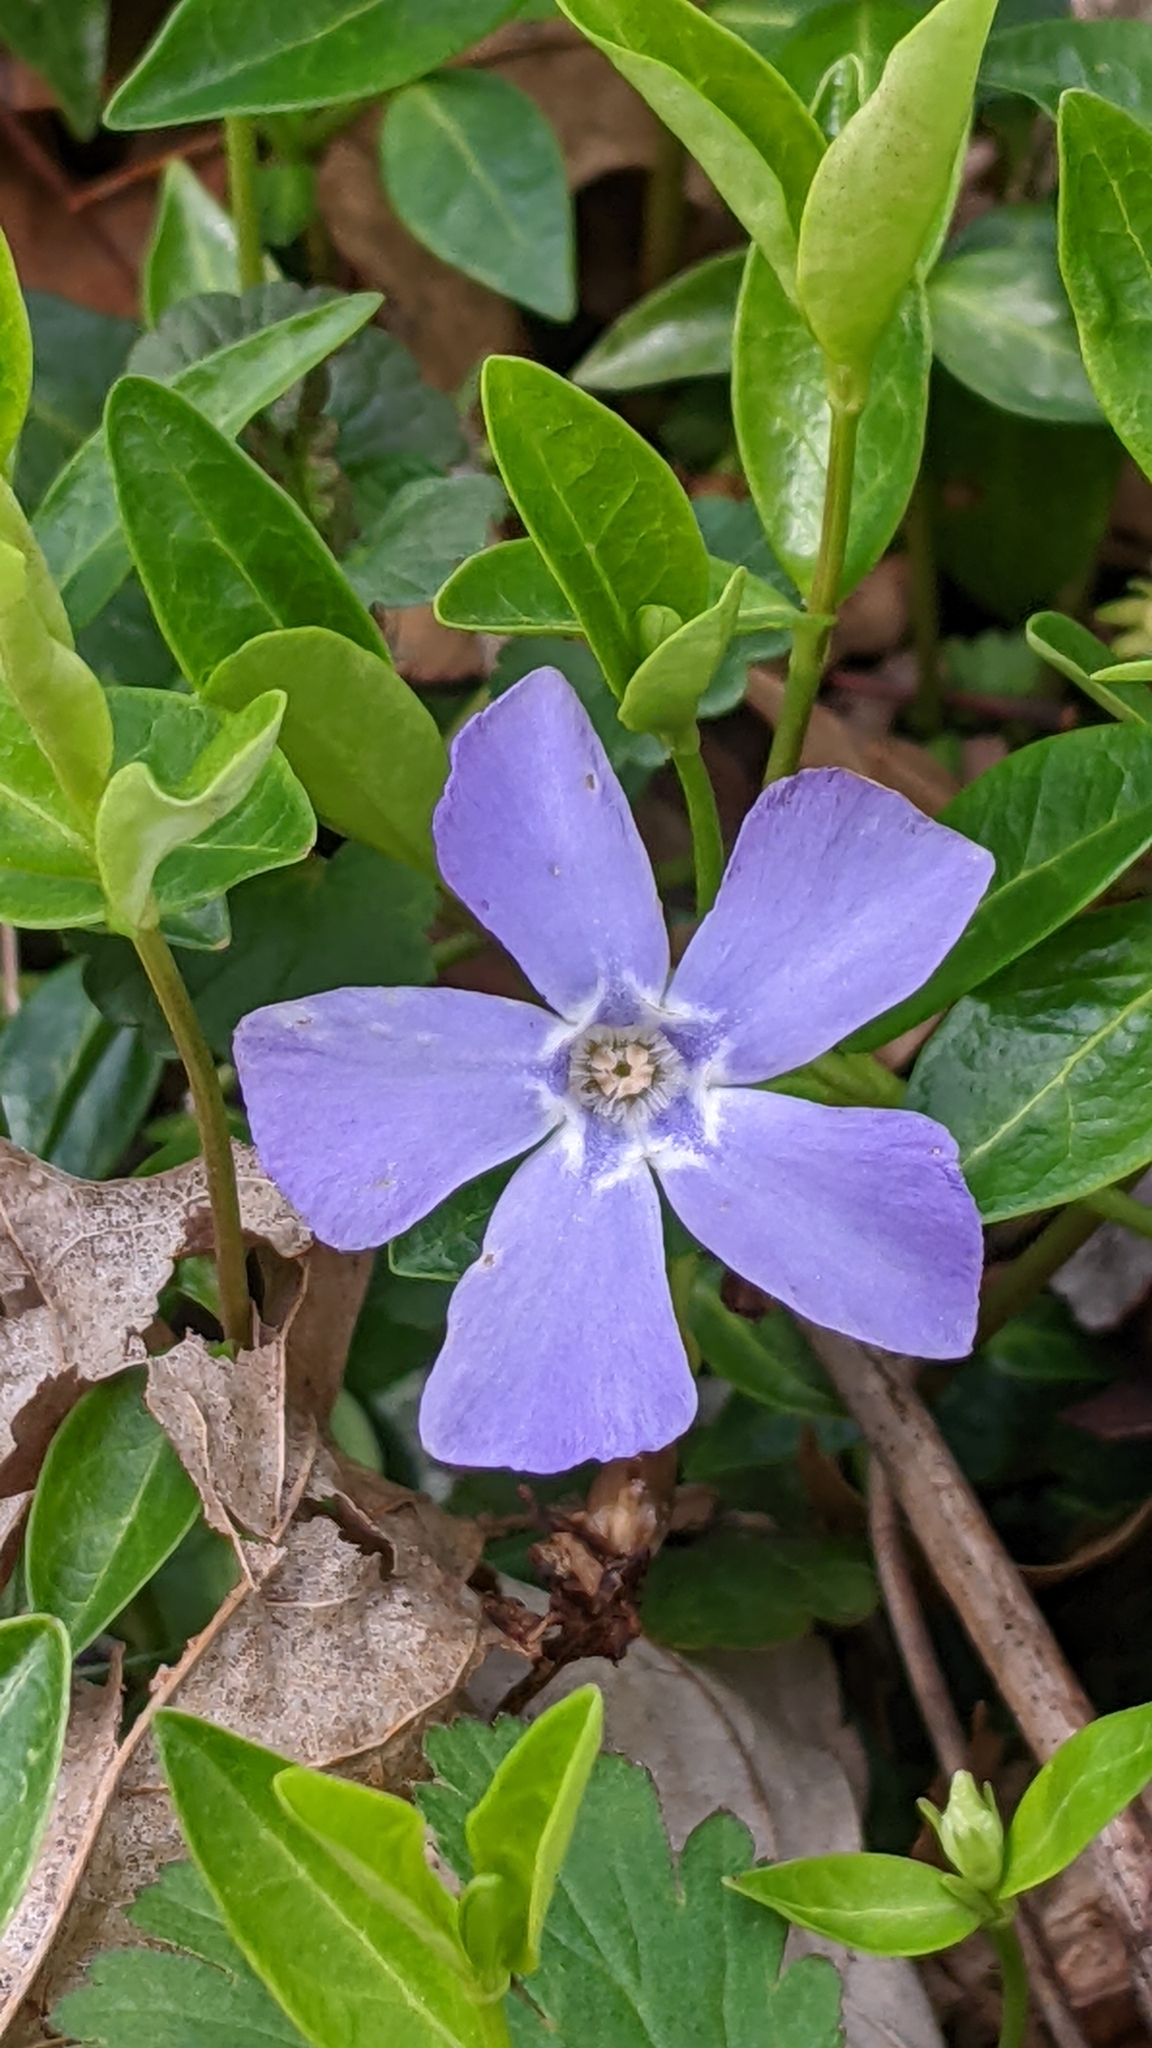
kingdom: Plantae
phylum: Tracheophyta
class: Magnoliopsida
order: Gentianales
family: Apocynaceae
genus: Vinca
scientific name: Vinca minor
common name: Lesser periwinkle
